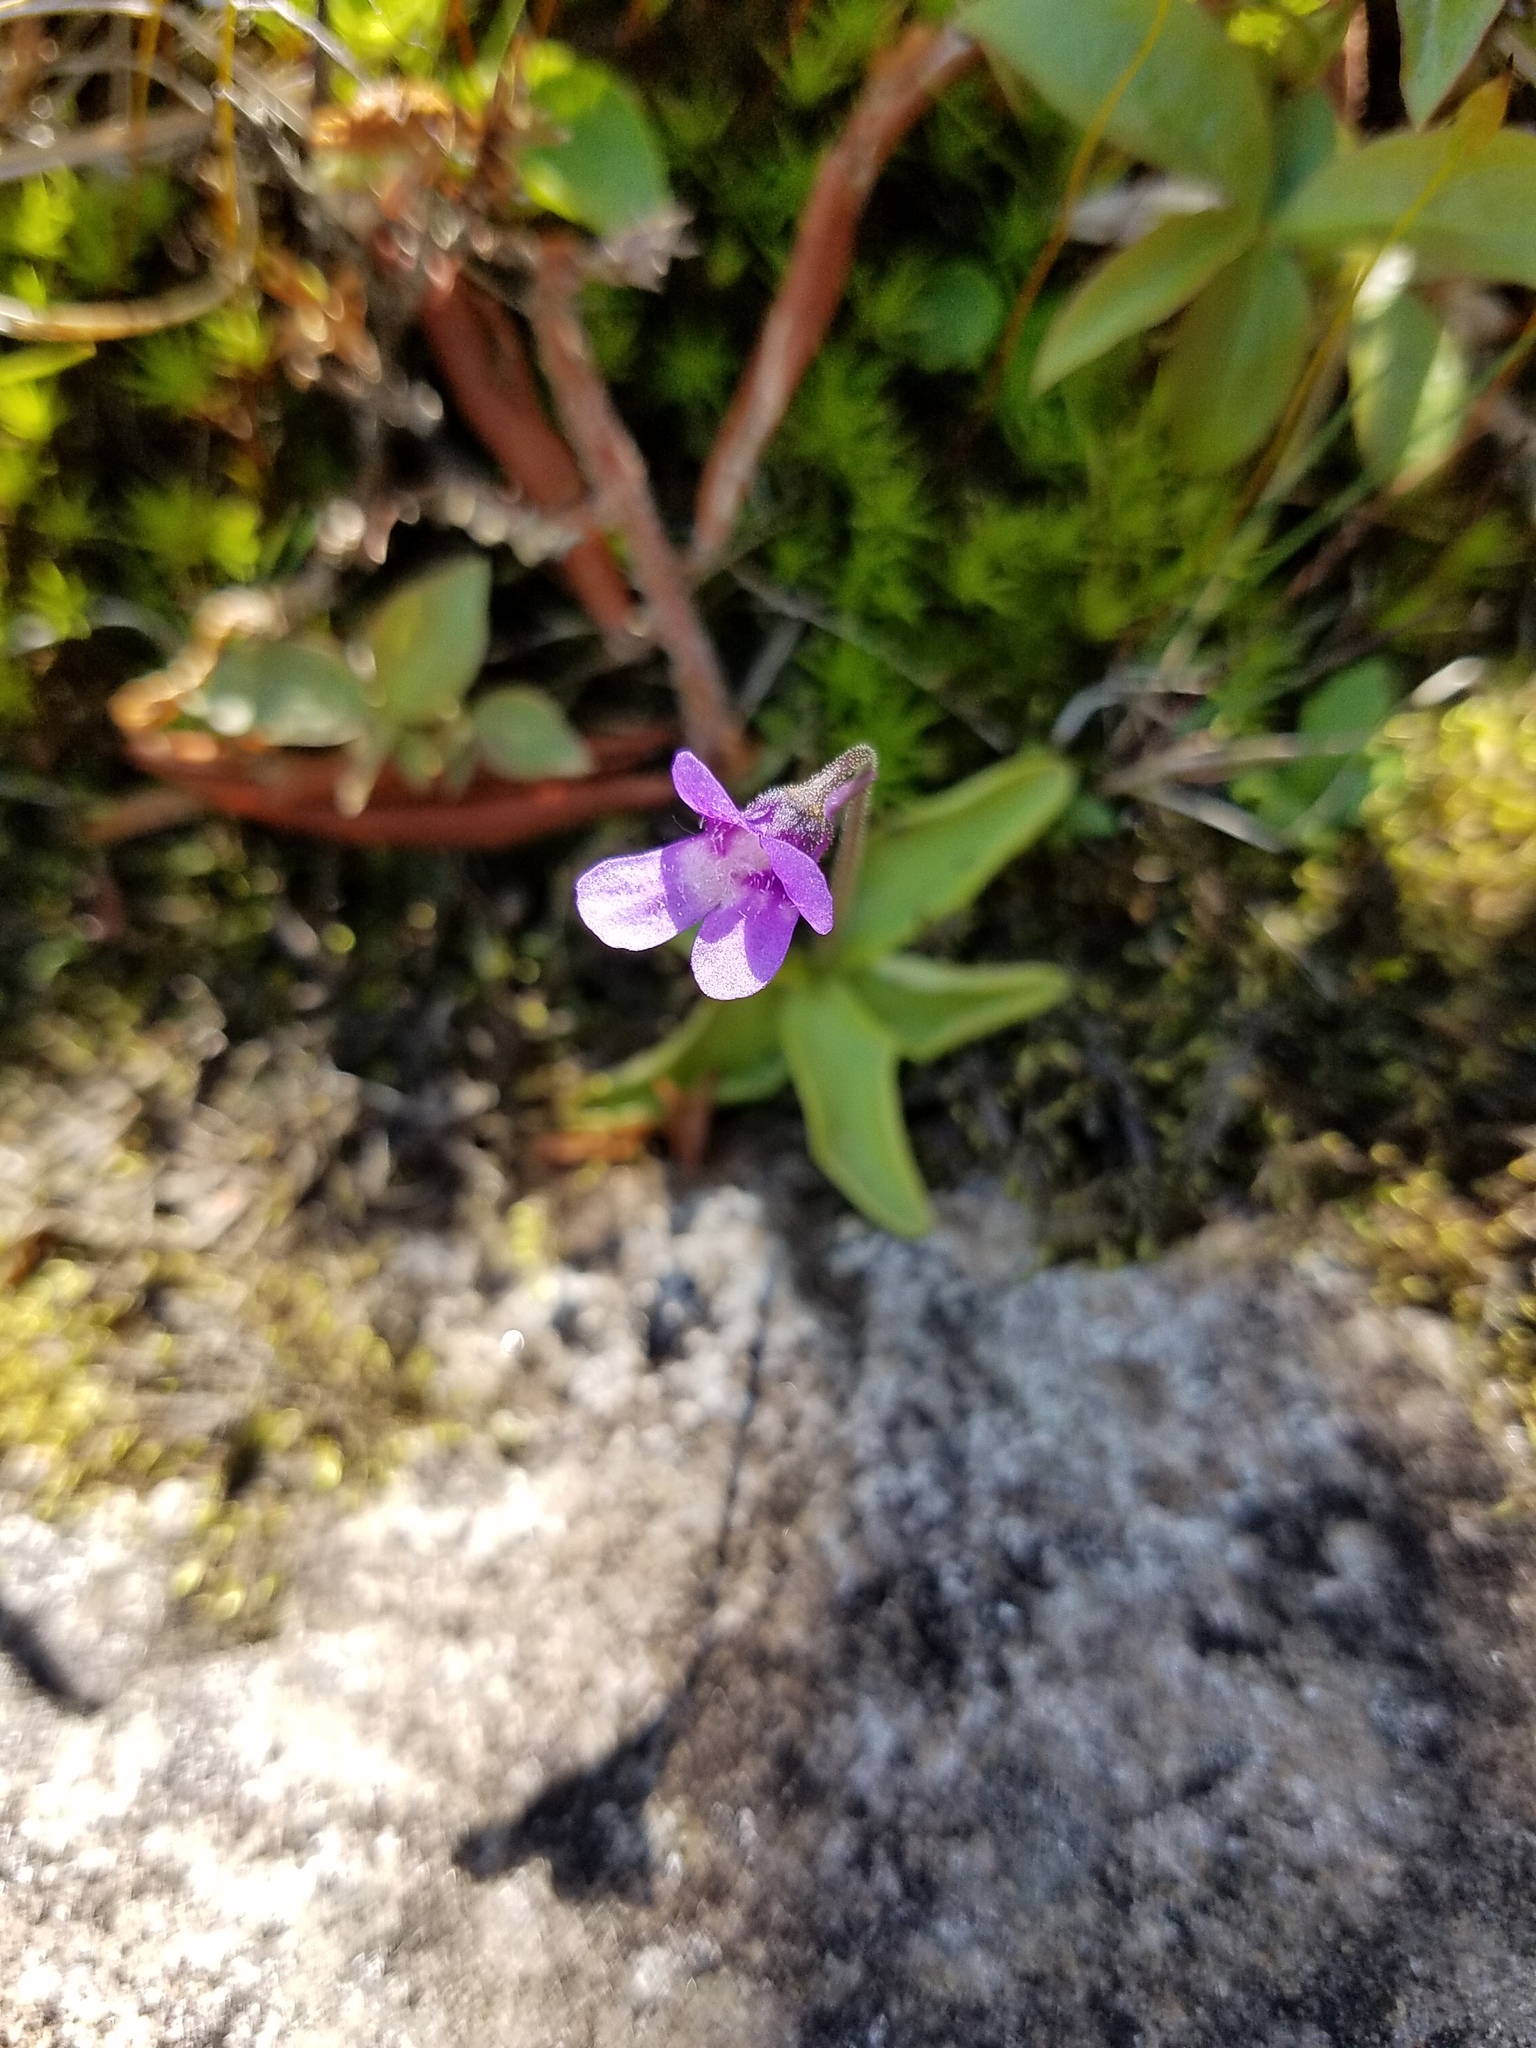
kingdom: Plantae
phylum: Tracheophyta
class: Magnoliopsida
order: Lamiales
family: Lentibulariaceae
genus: Pinguicula
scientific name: Pinguicula vulgaris
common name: Common butterwort
